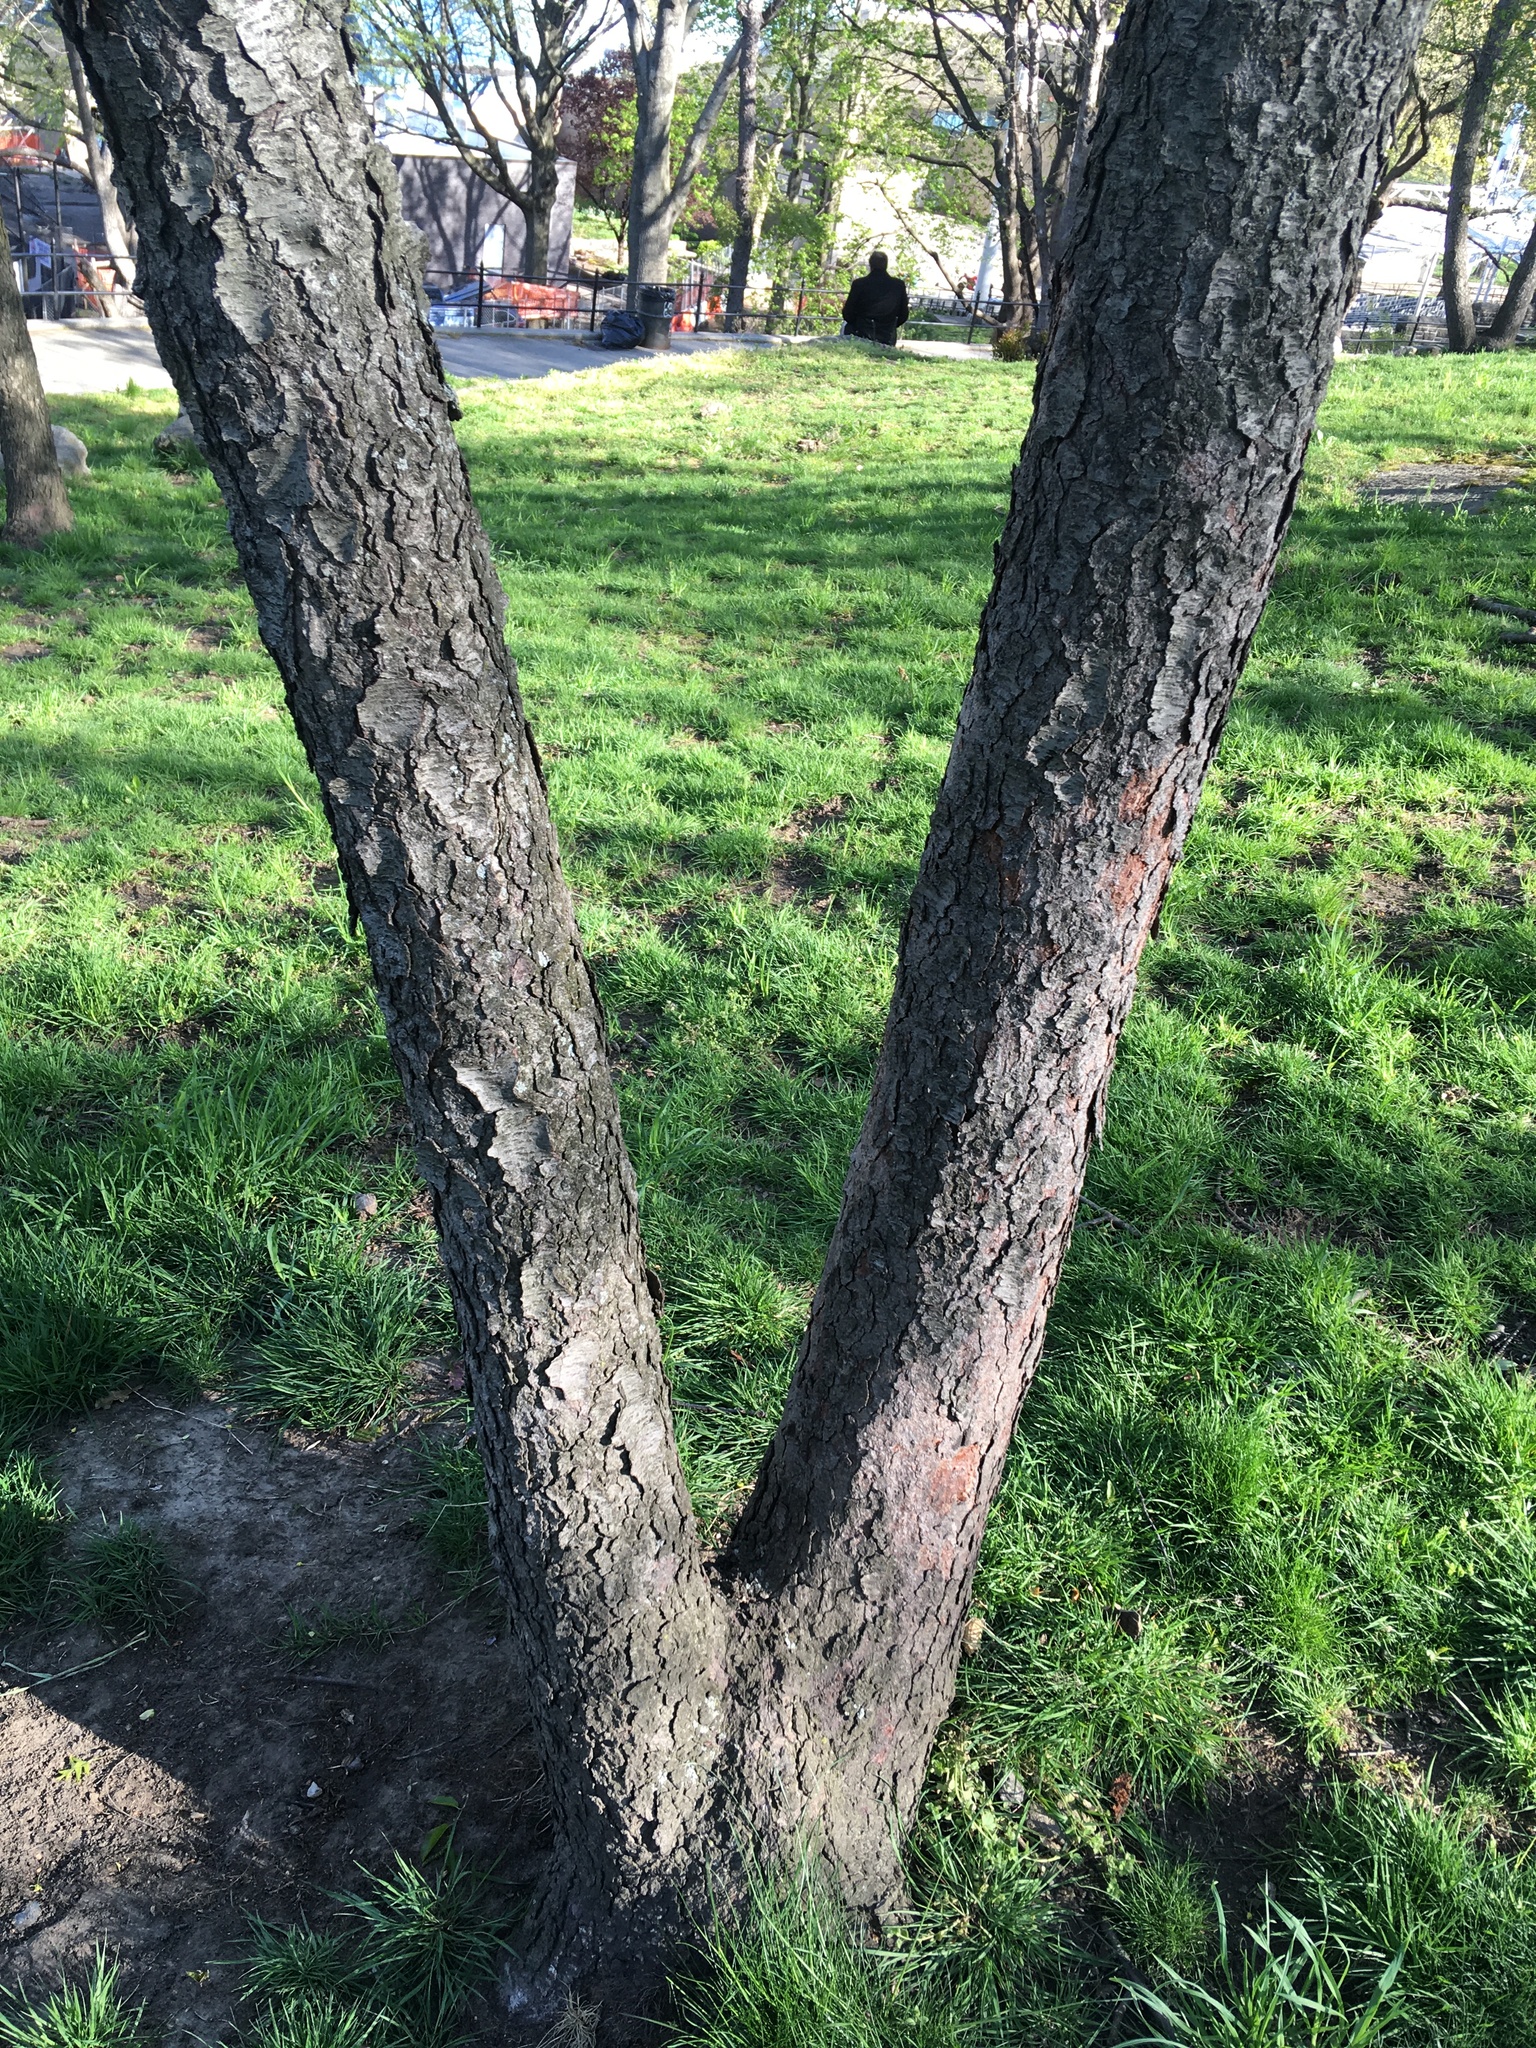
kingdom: Plantae
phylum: Tracheophyta
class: Magnoliopsida
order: Rosales
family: Rosaceae
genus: Prunus
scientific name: Prunus serotina
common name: Black cherry
